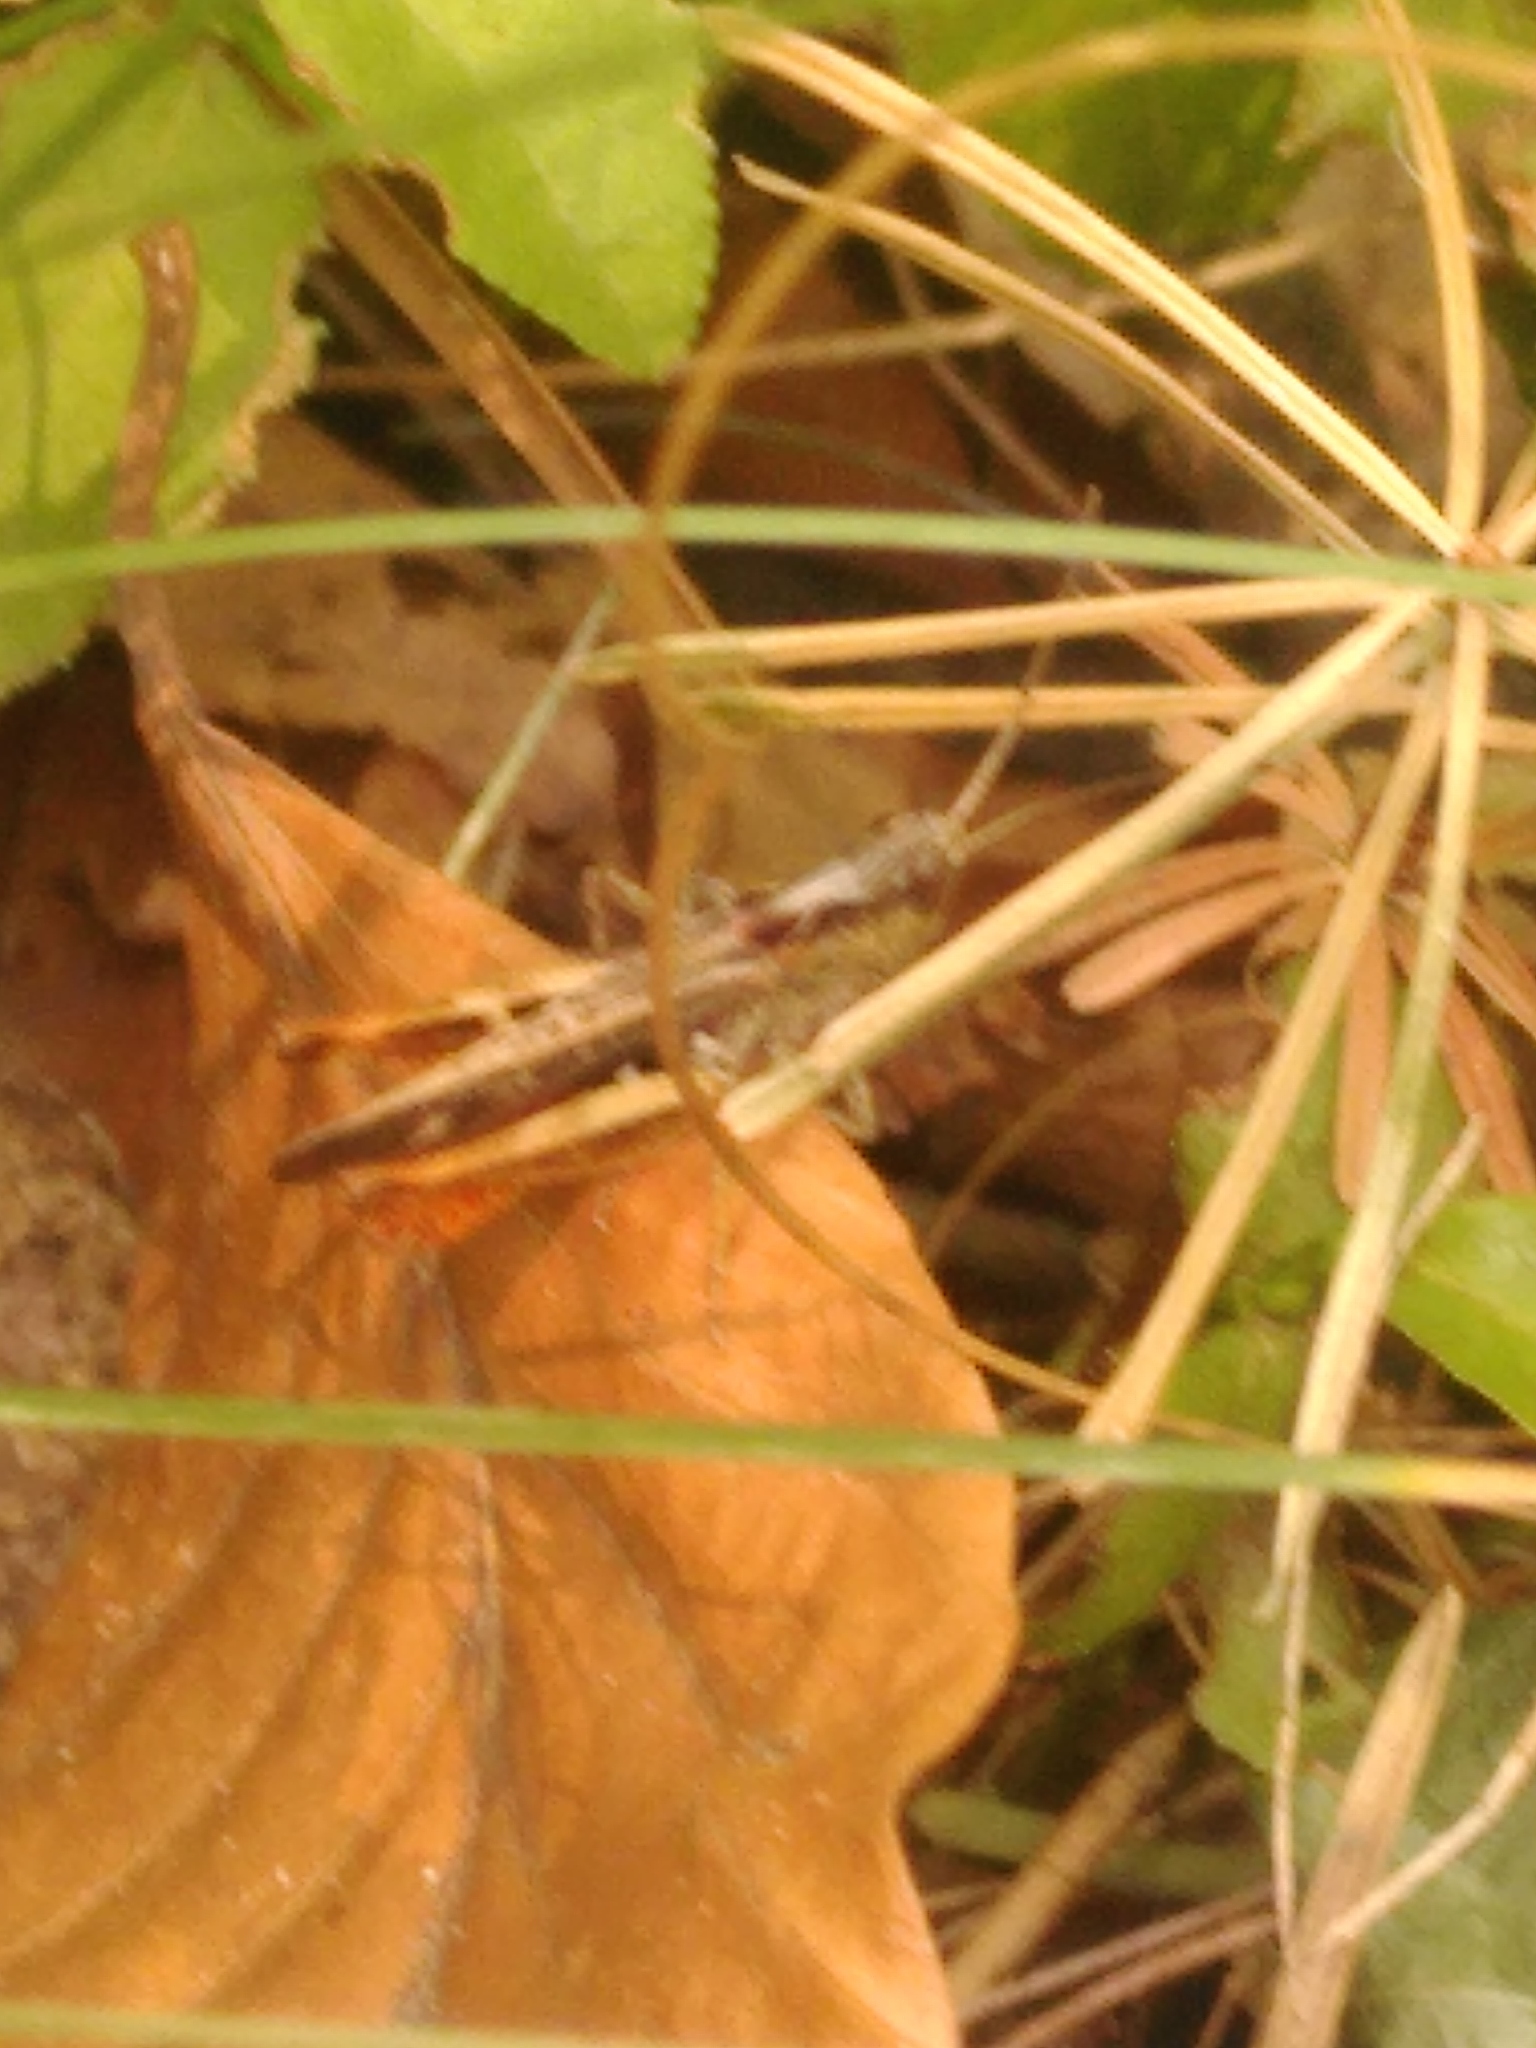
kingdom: Animalia
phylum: Arthropoda
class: Insecta
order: Orthoptera
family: Acrididae
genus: Chorthippus
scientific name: Chorthippus vagans
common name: Heath grasshopper
